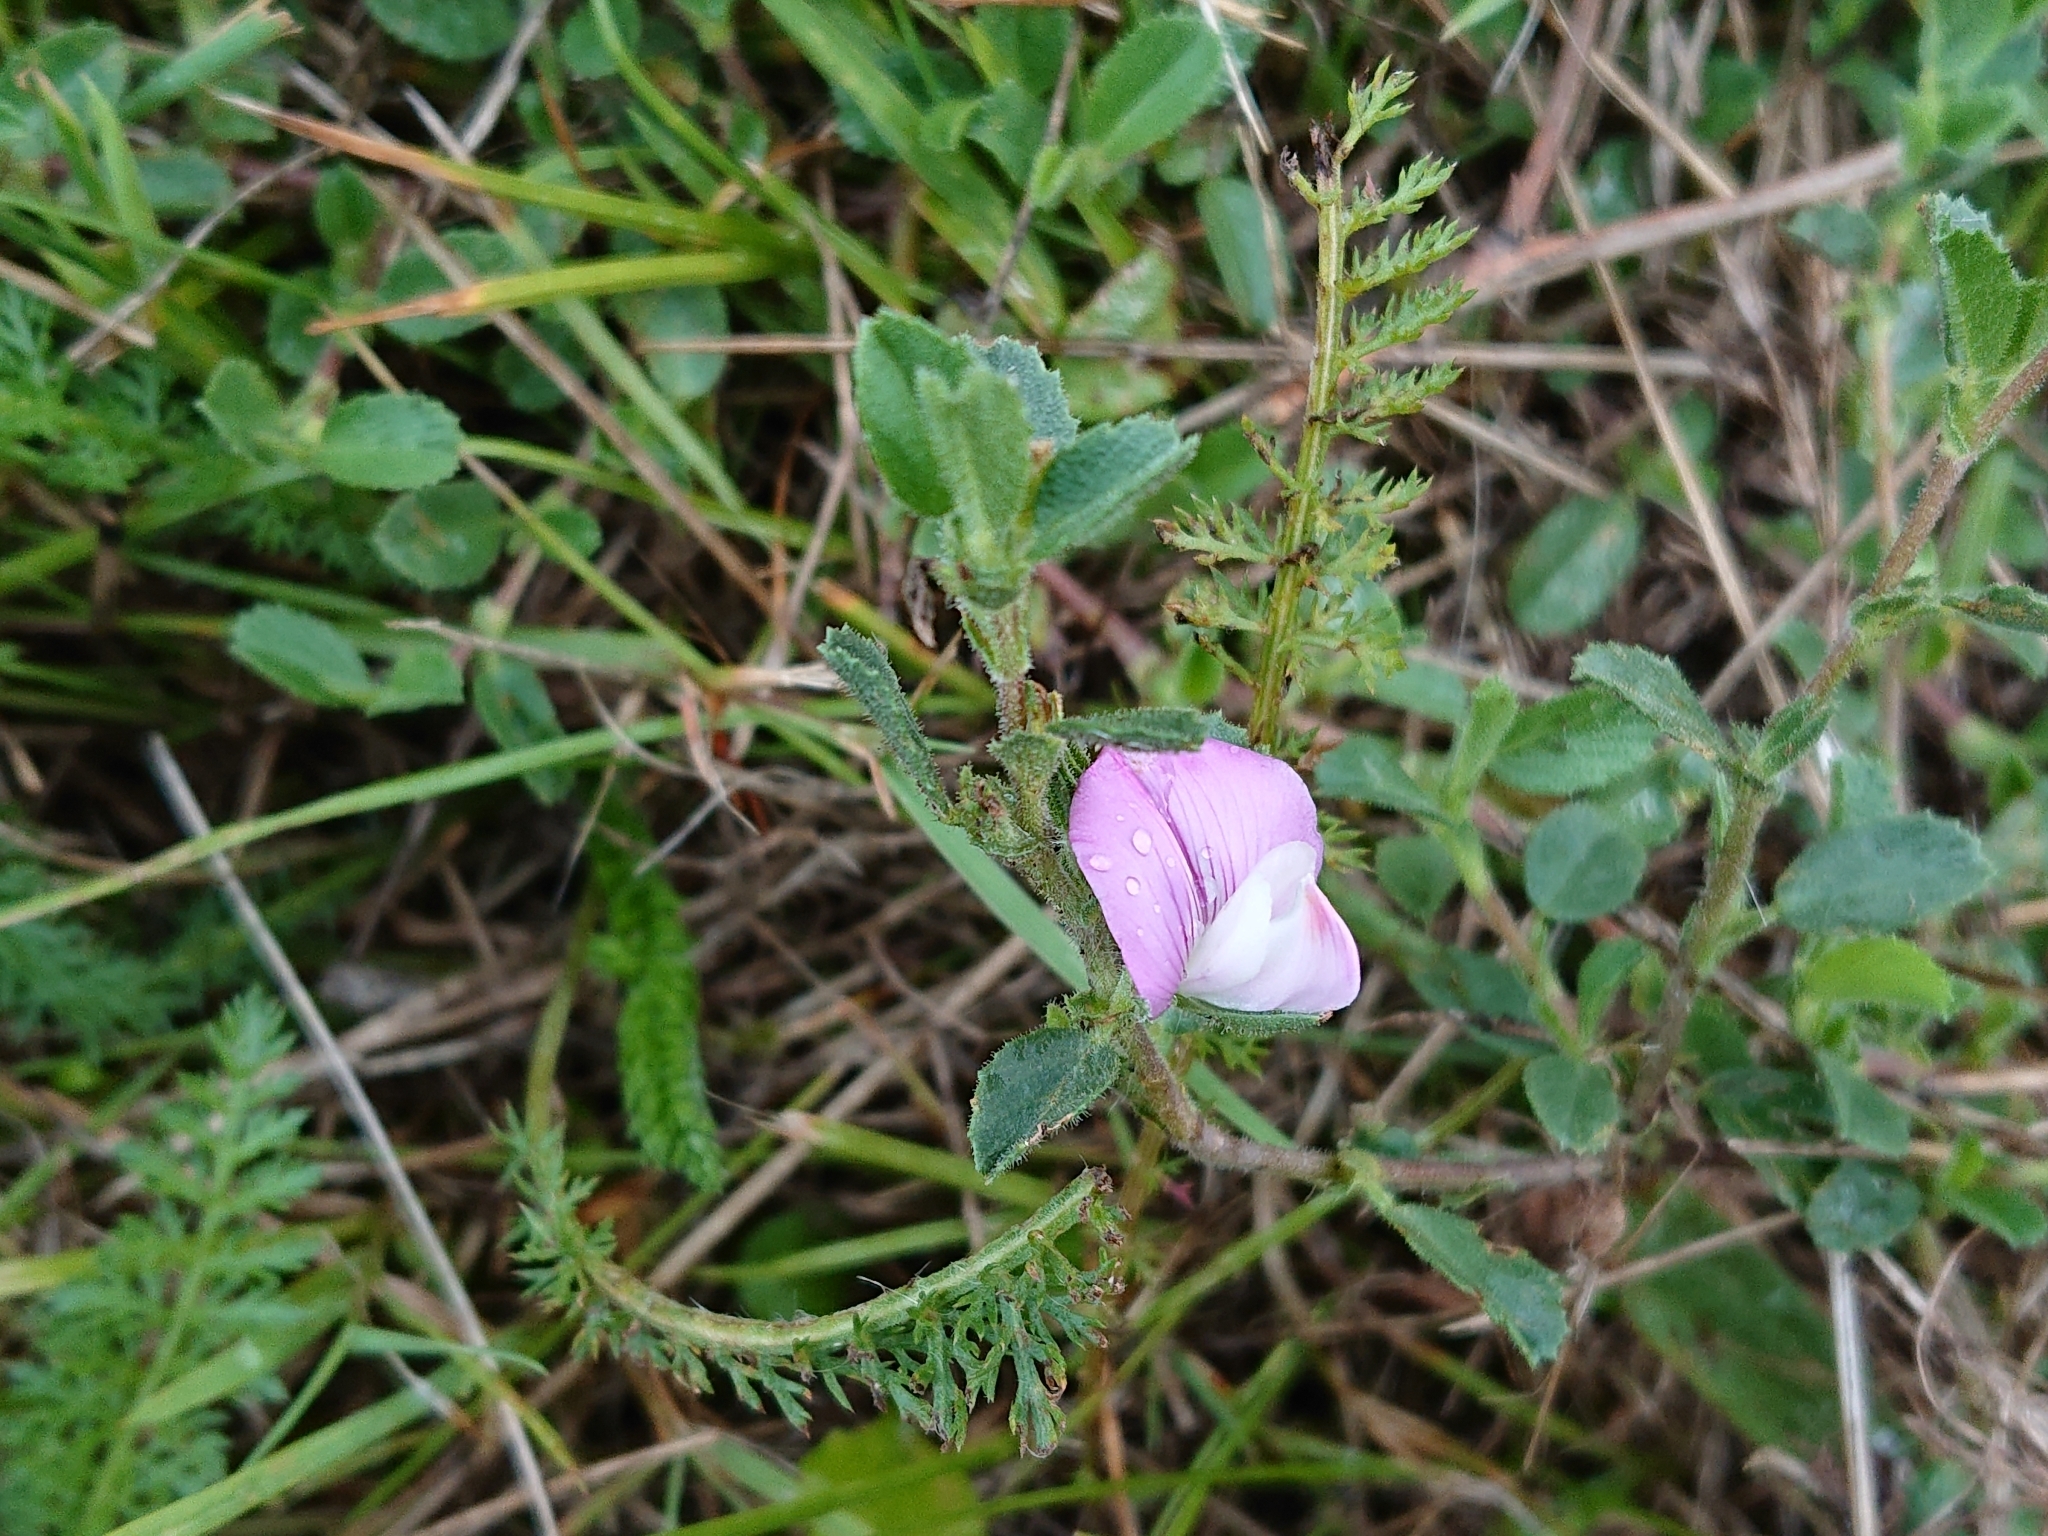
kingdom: Plantae
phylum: Tracheophyta
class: Magnoliopsida
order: Fabales
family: Fabaceae
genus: Ononis
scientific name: Ononis spinosa
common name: Spiny restharrow
